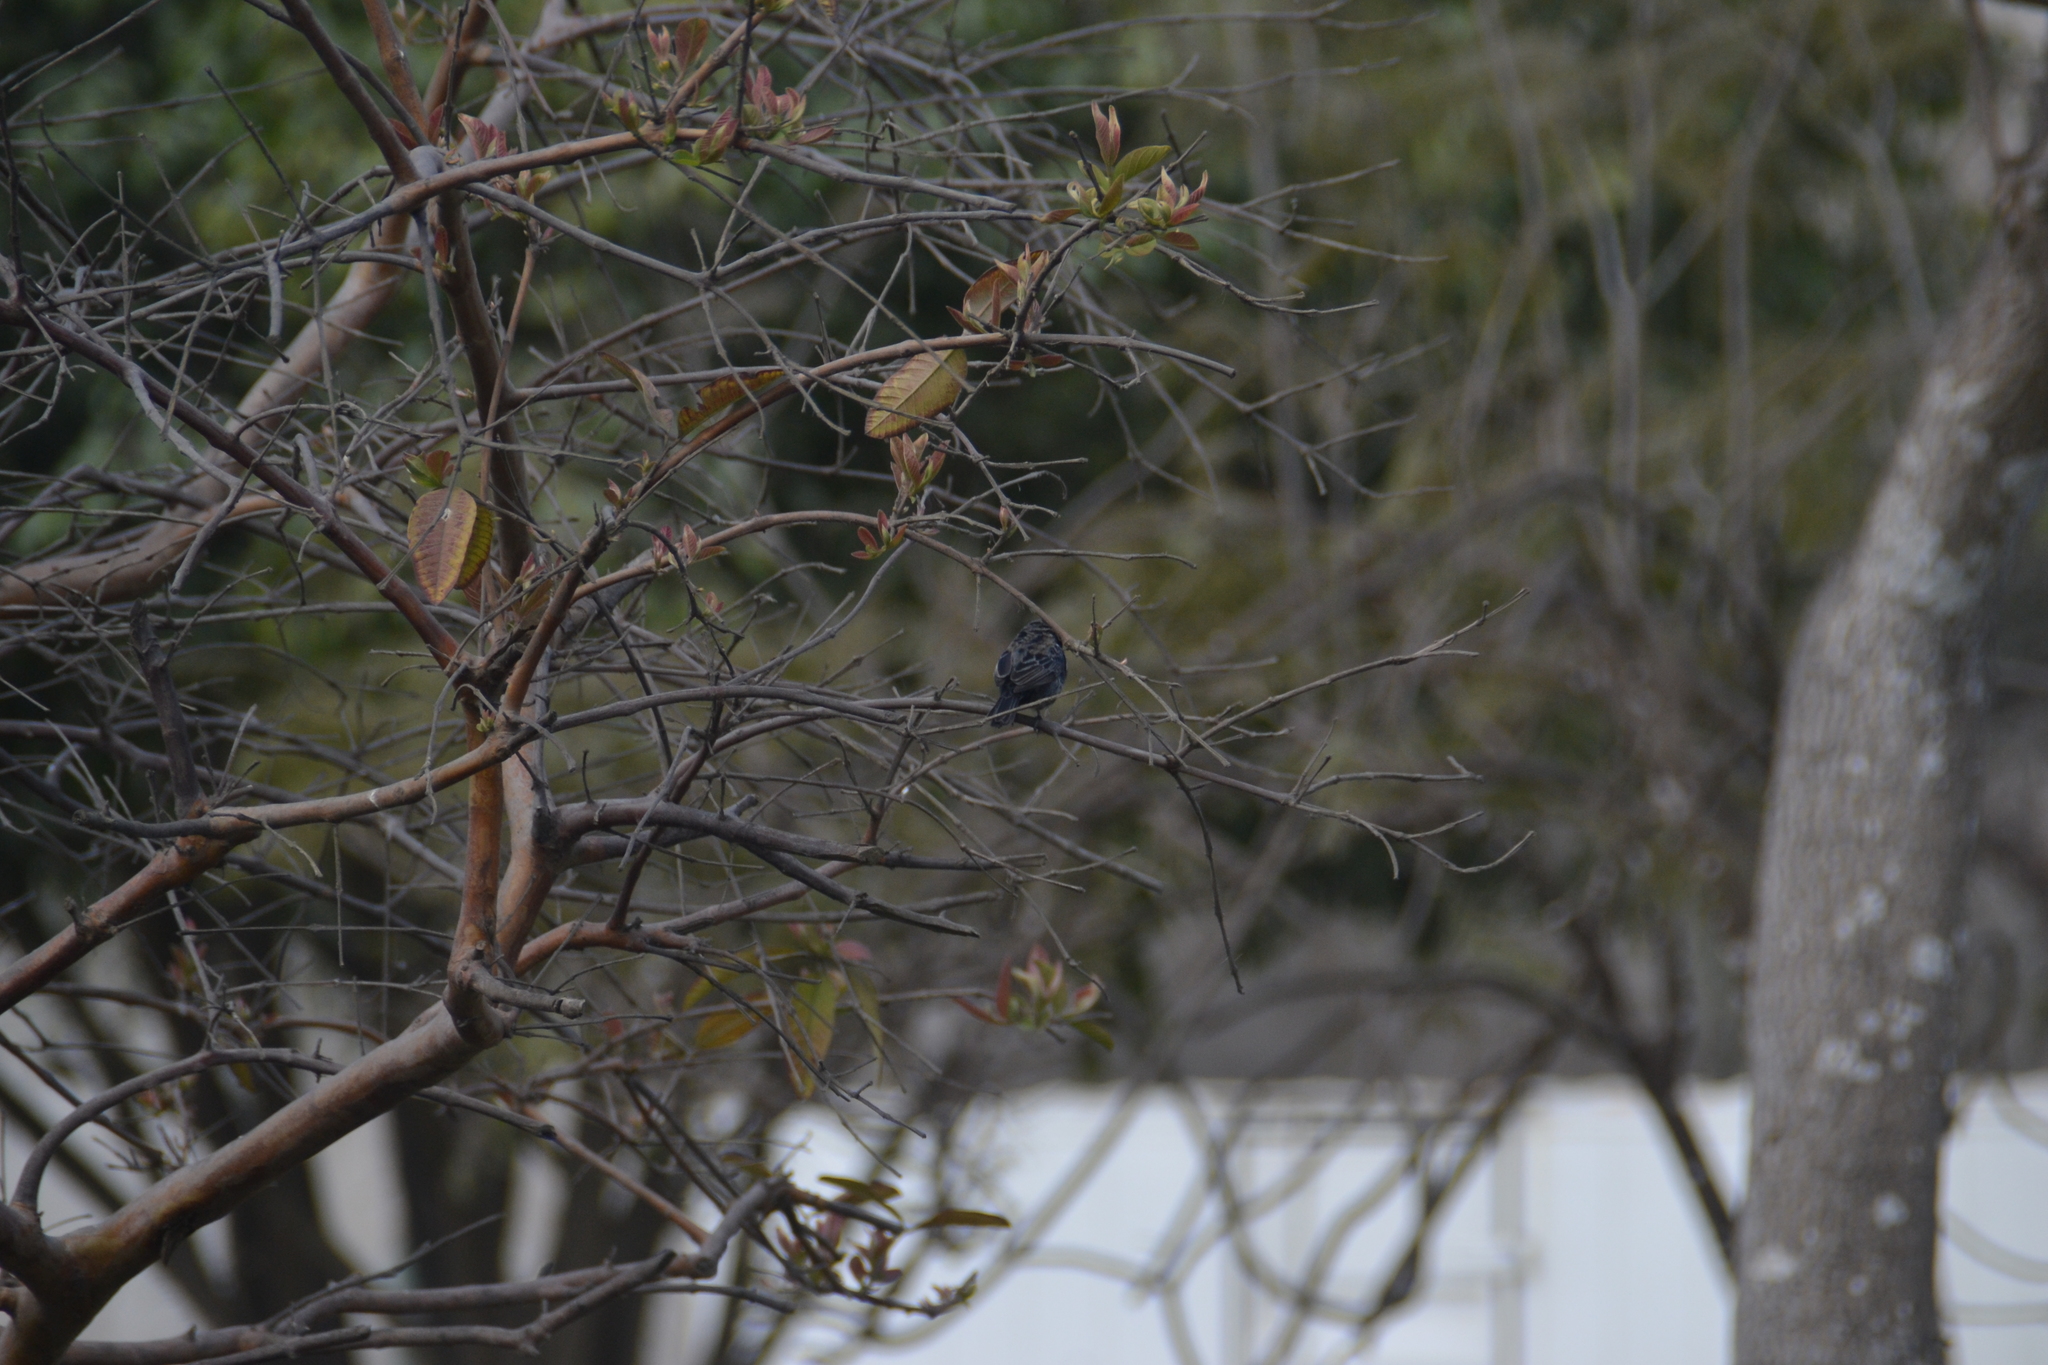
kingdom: Animalia
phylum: Chordata
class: Aves
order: Passeriformes
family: Thraupidae
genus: Volatinia
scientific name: Volatinia jacarina
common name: Blue-black grassquit
